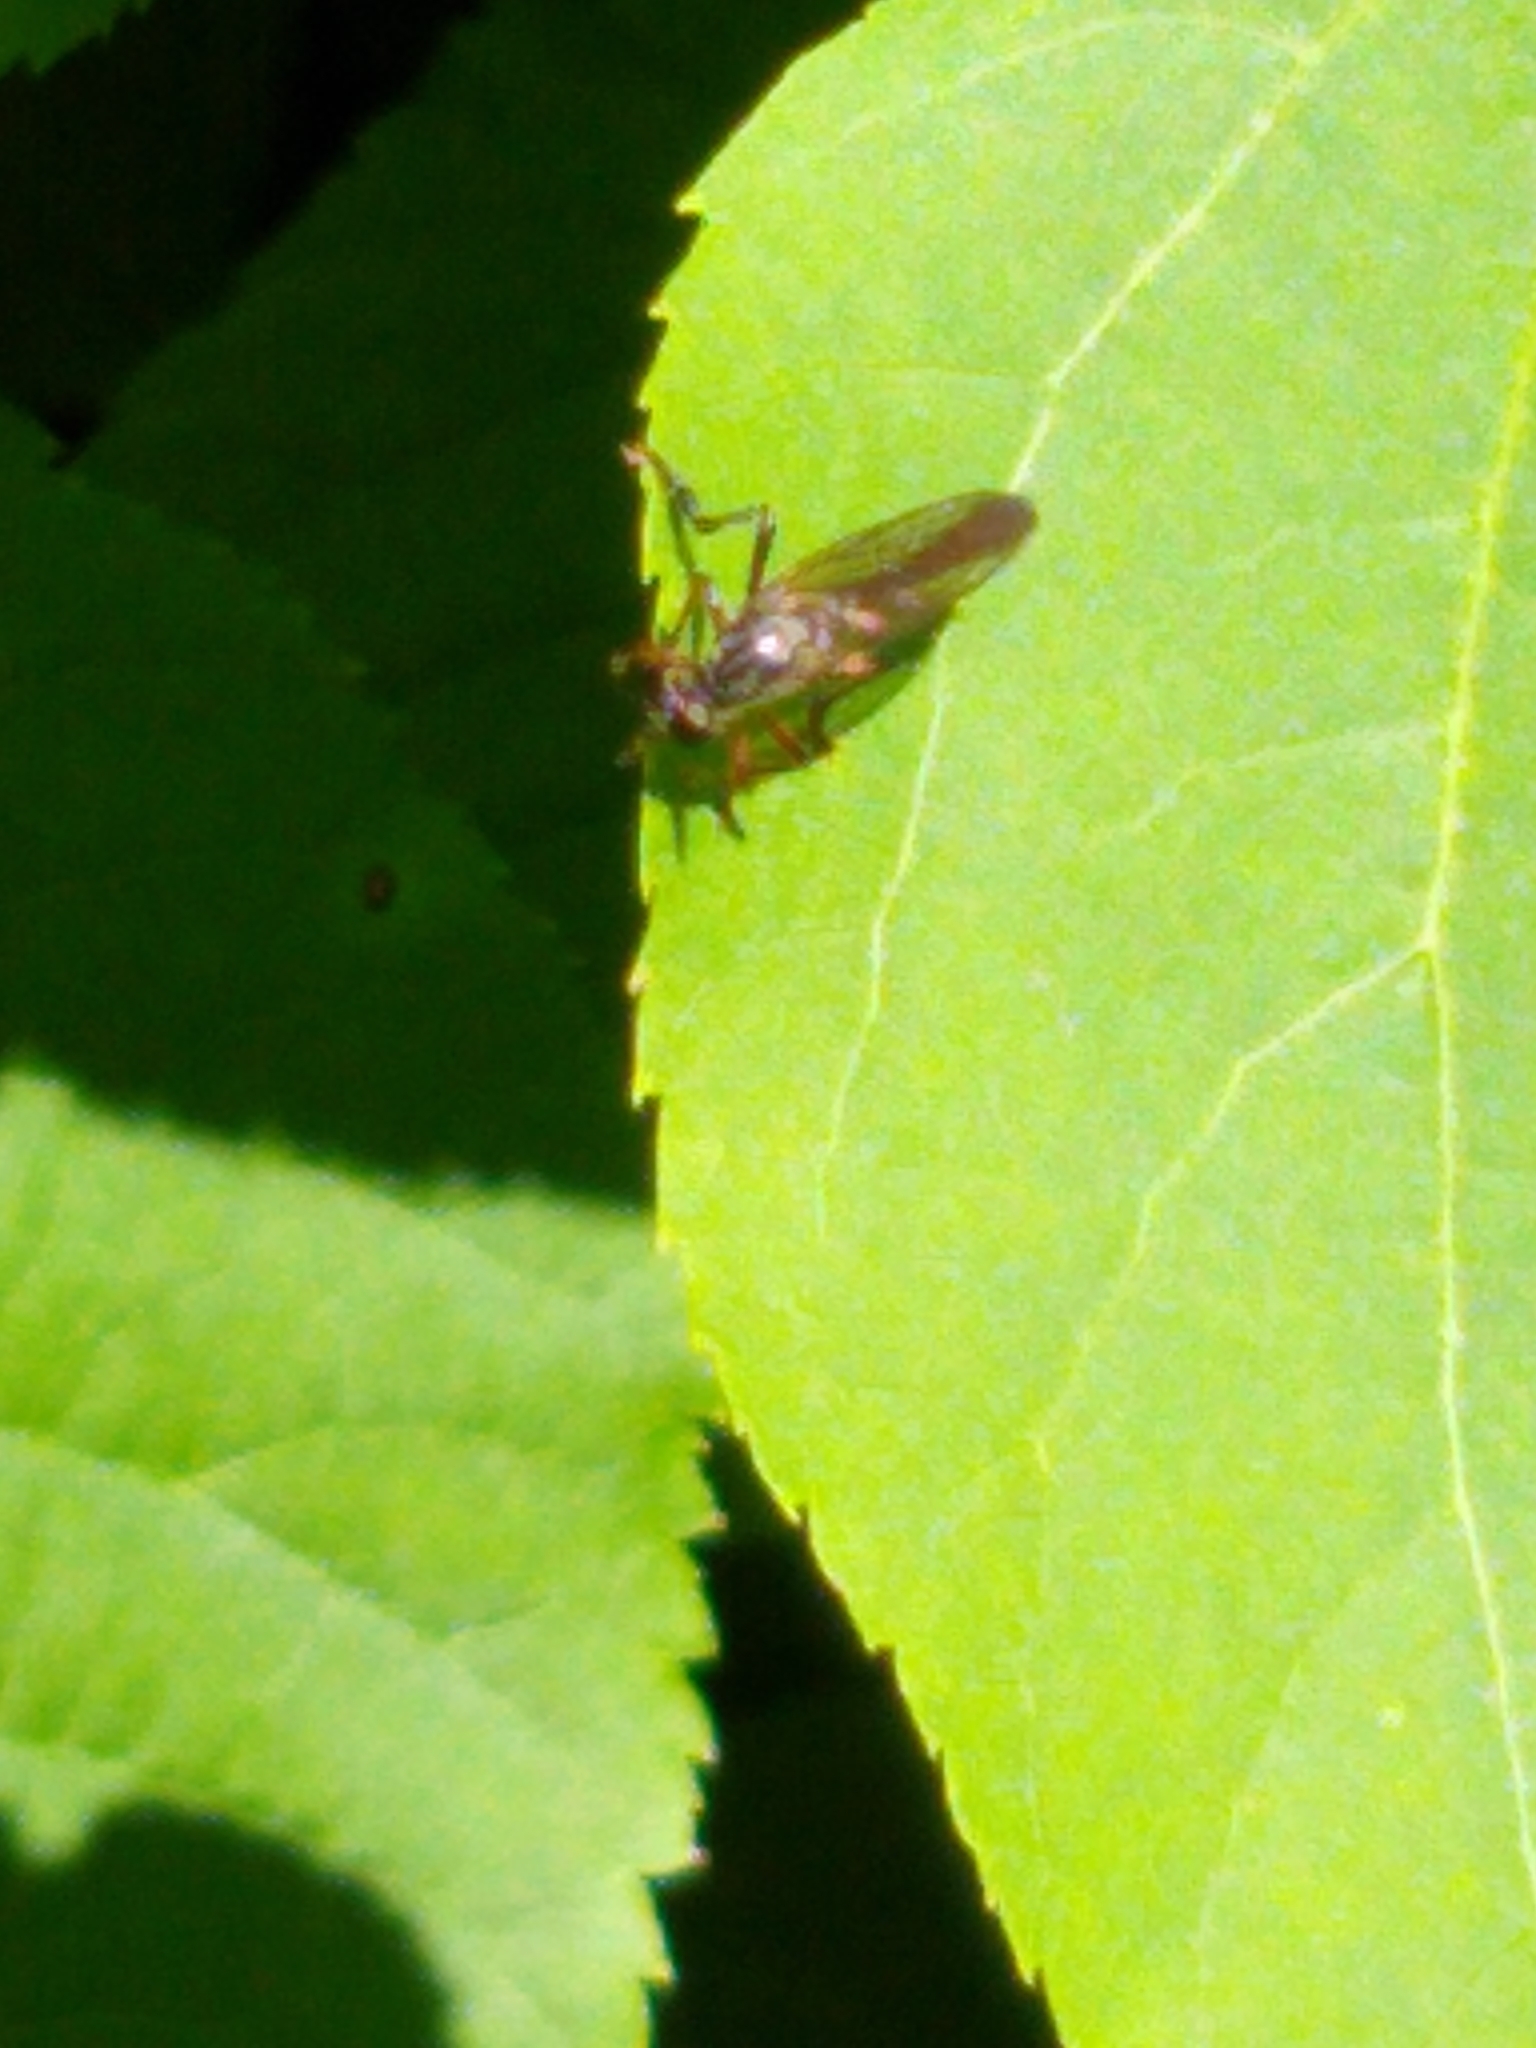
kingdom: Animalia
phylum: Arthropoda
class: Insecta
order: Diptera
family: Asilidae
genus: Dioctria
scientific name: Dioctria hyalipennis
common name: Stripe-legged robberfly
